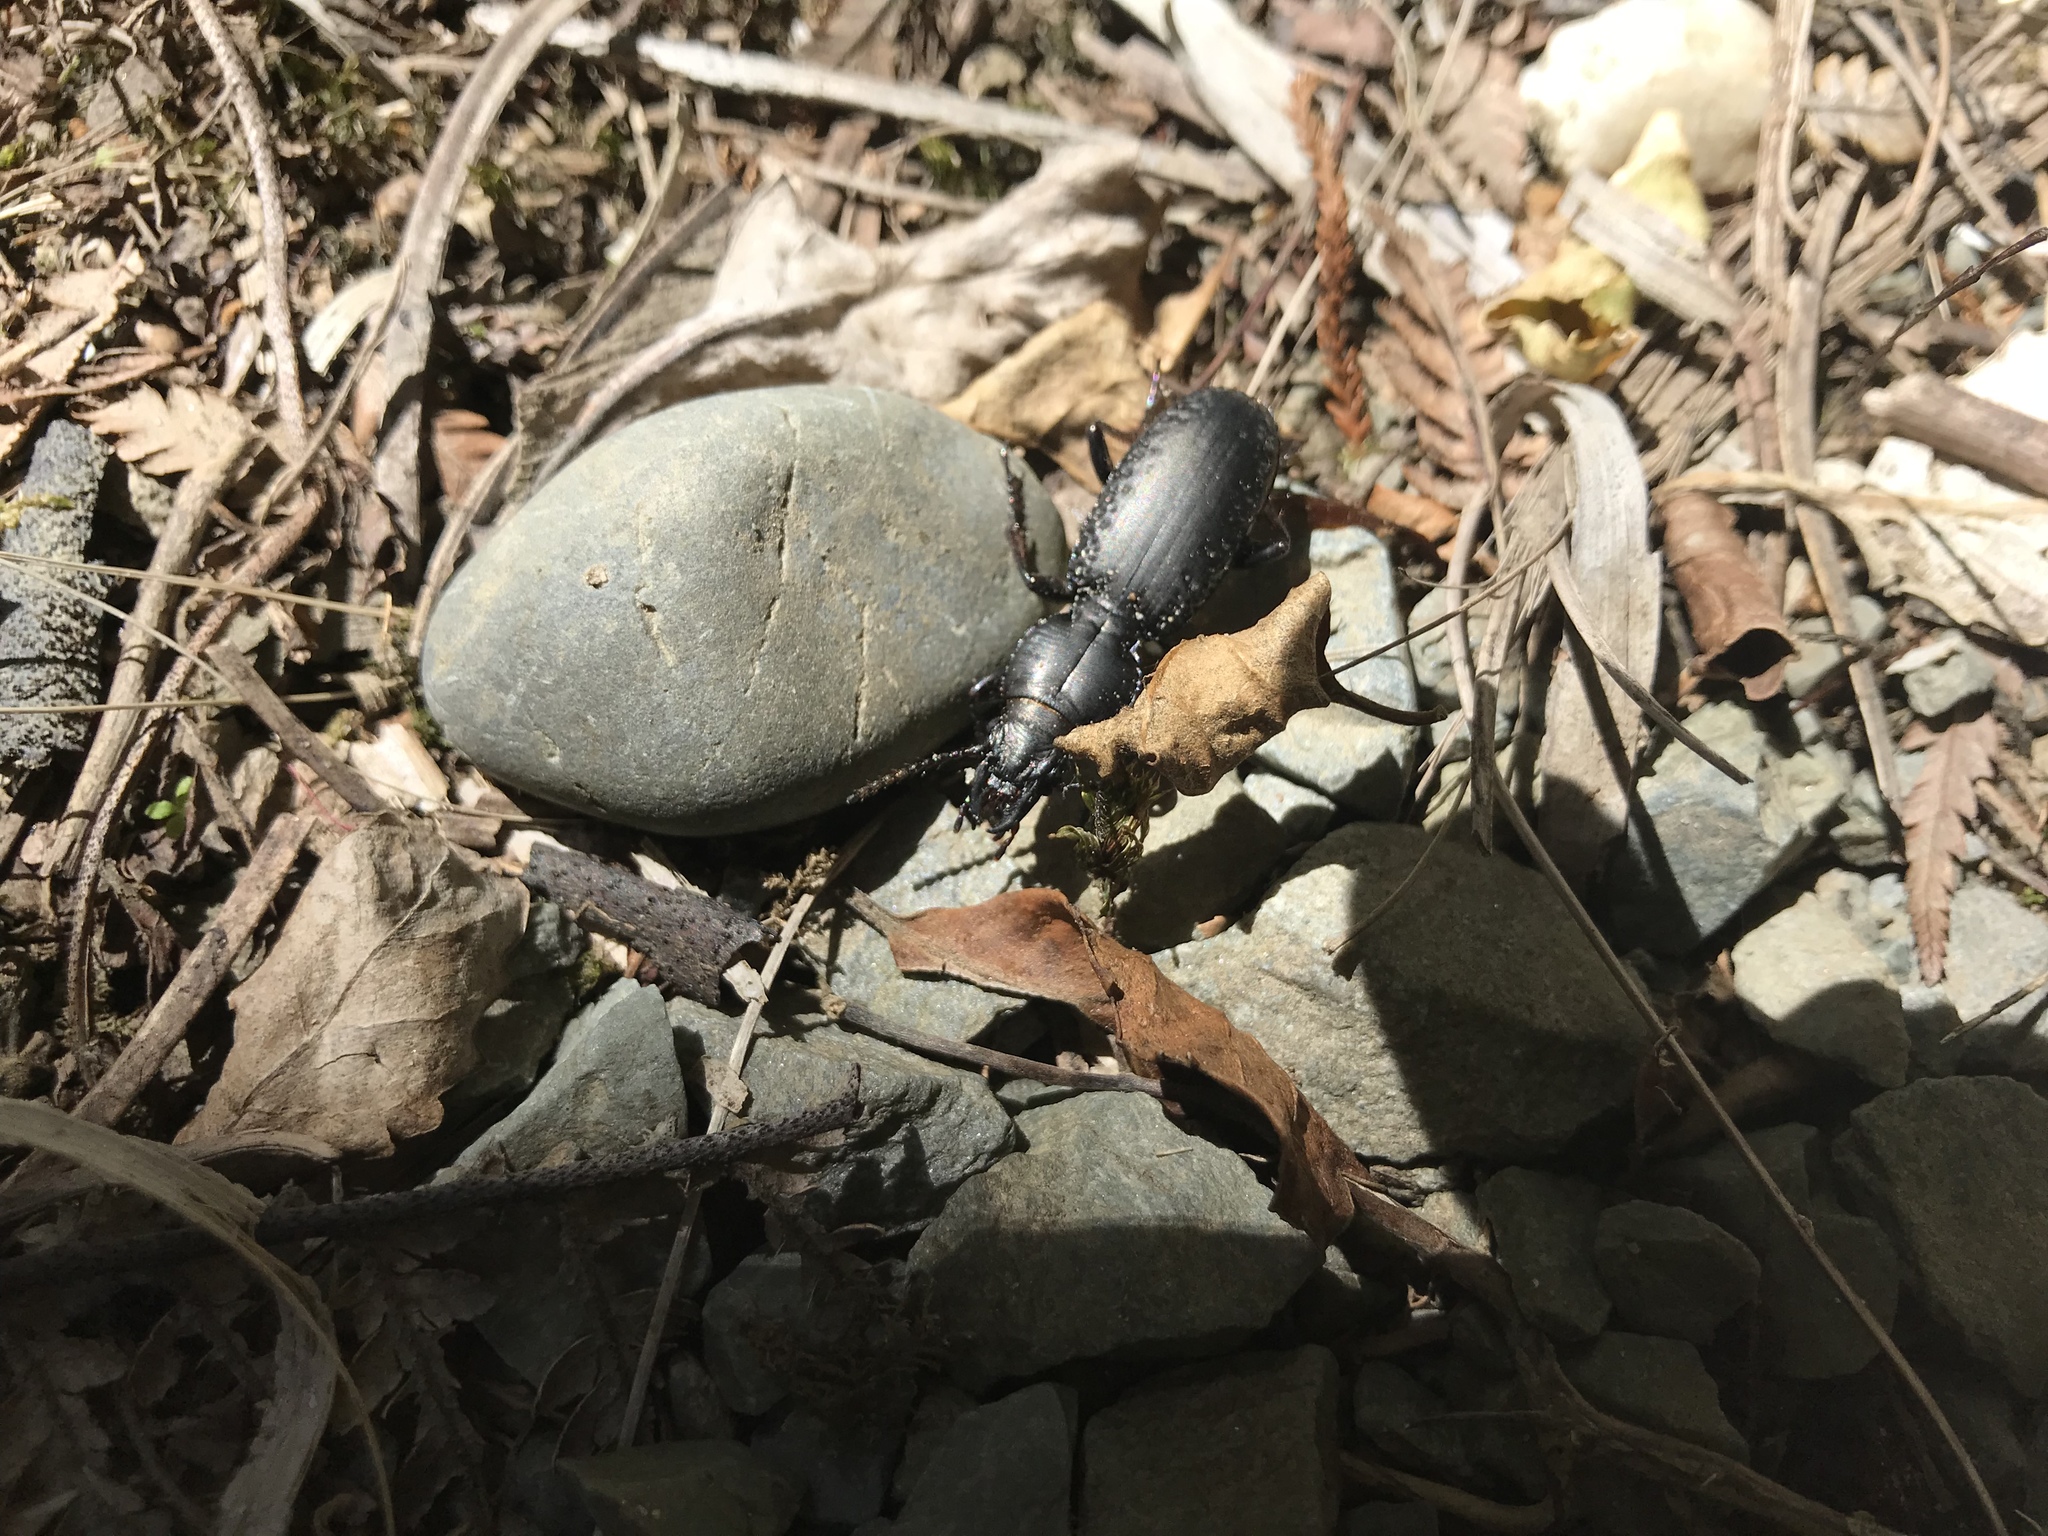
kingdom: Animalia
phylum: Arthropoda
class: Insecta
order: Coleoptera
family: Carabidae
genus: Mecodema
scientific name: Mecodema ducale
